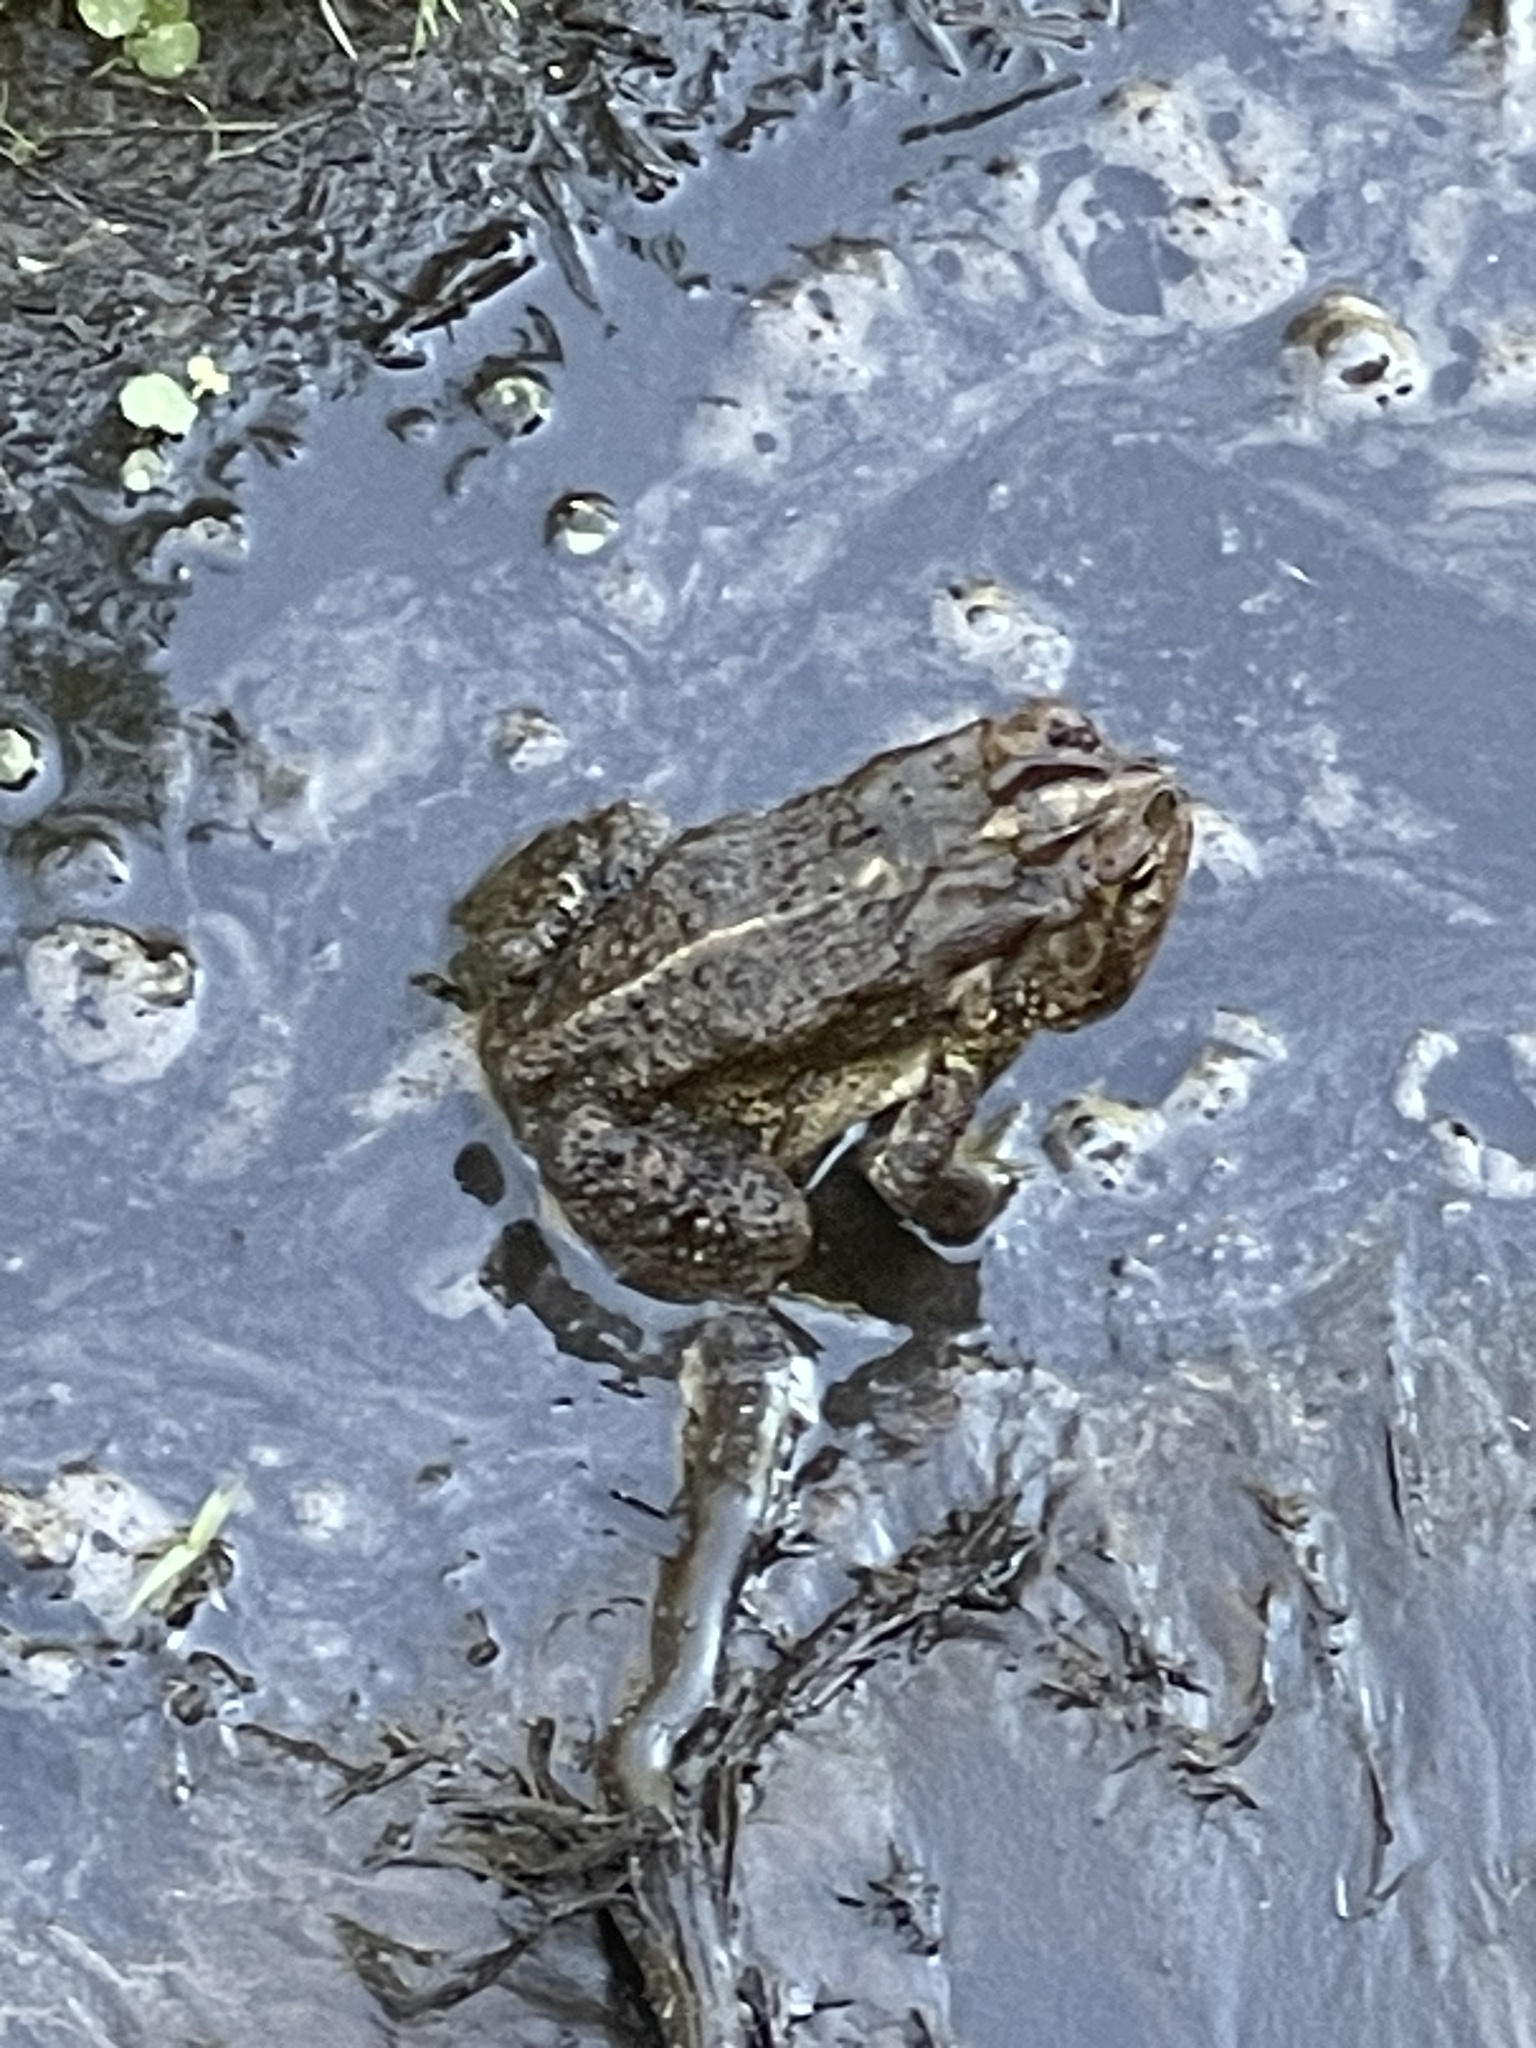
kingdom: Animalia
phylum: Chordata
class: Amphibia
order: Anura
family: Bufonidae
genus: Anaxyrus
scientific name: Anaxyrus terrestris
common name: Southern toad
